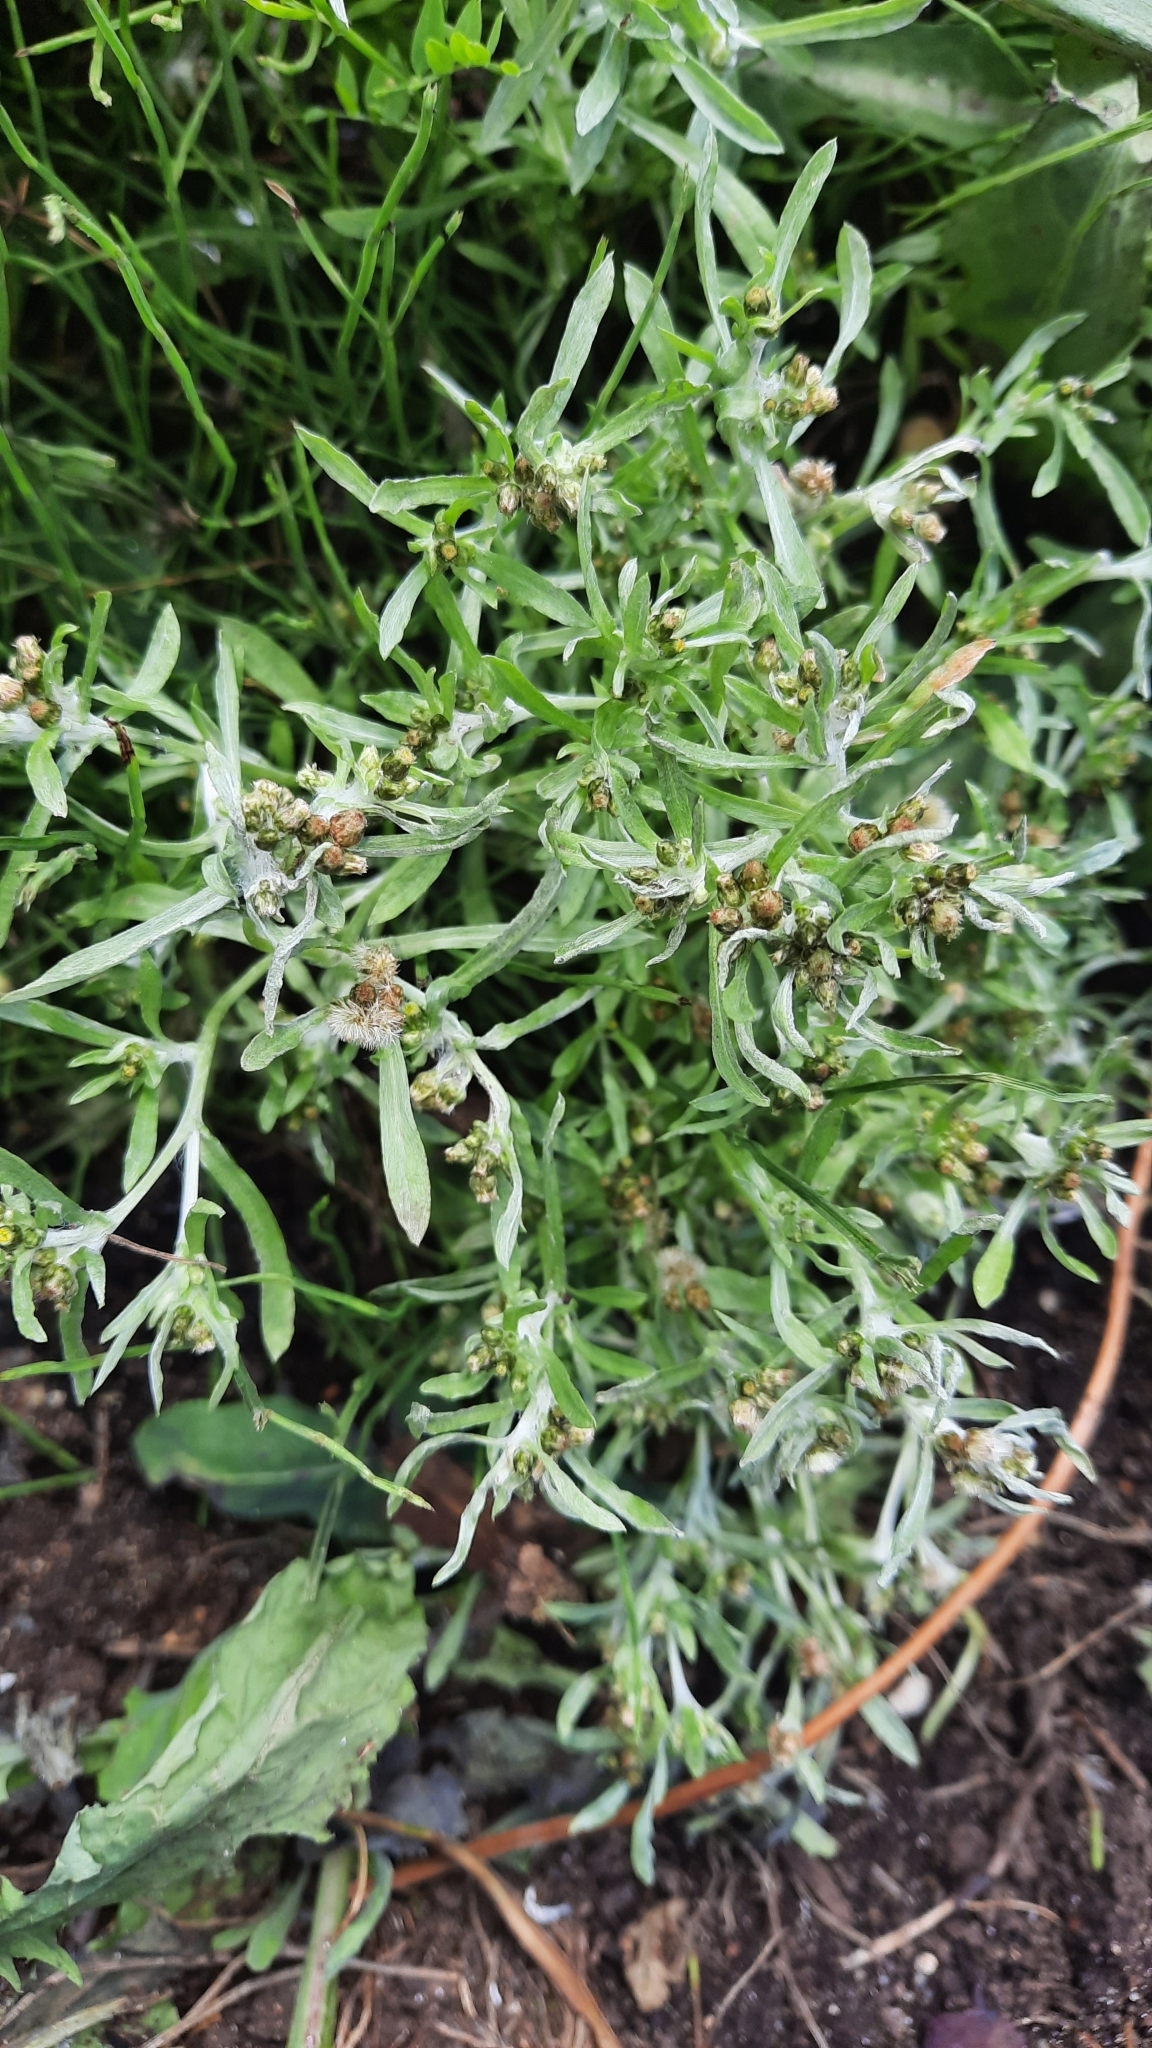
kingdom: Plantae
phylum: Tracheophyta
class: Magnoliopsida
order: Asterales
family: Asteraceae
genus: Gnaphalium
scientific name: Gnaphalium uliginosum
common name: Marsh cudweed
